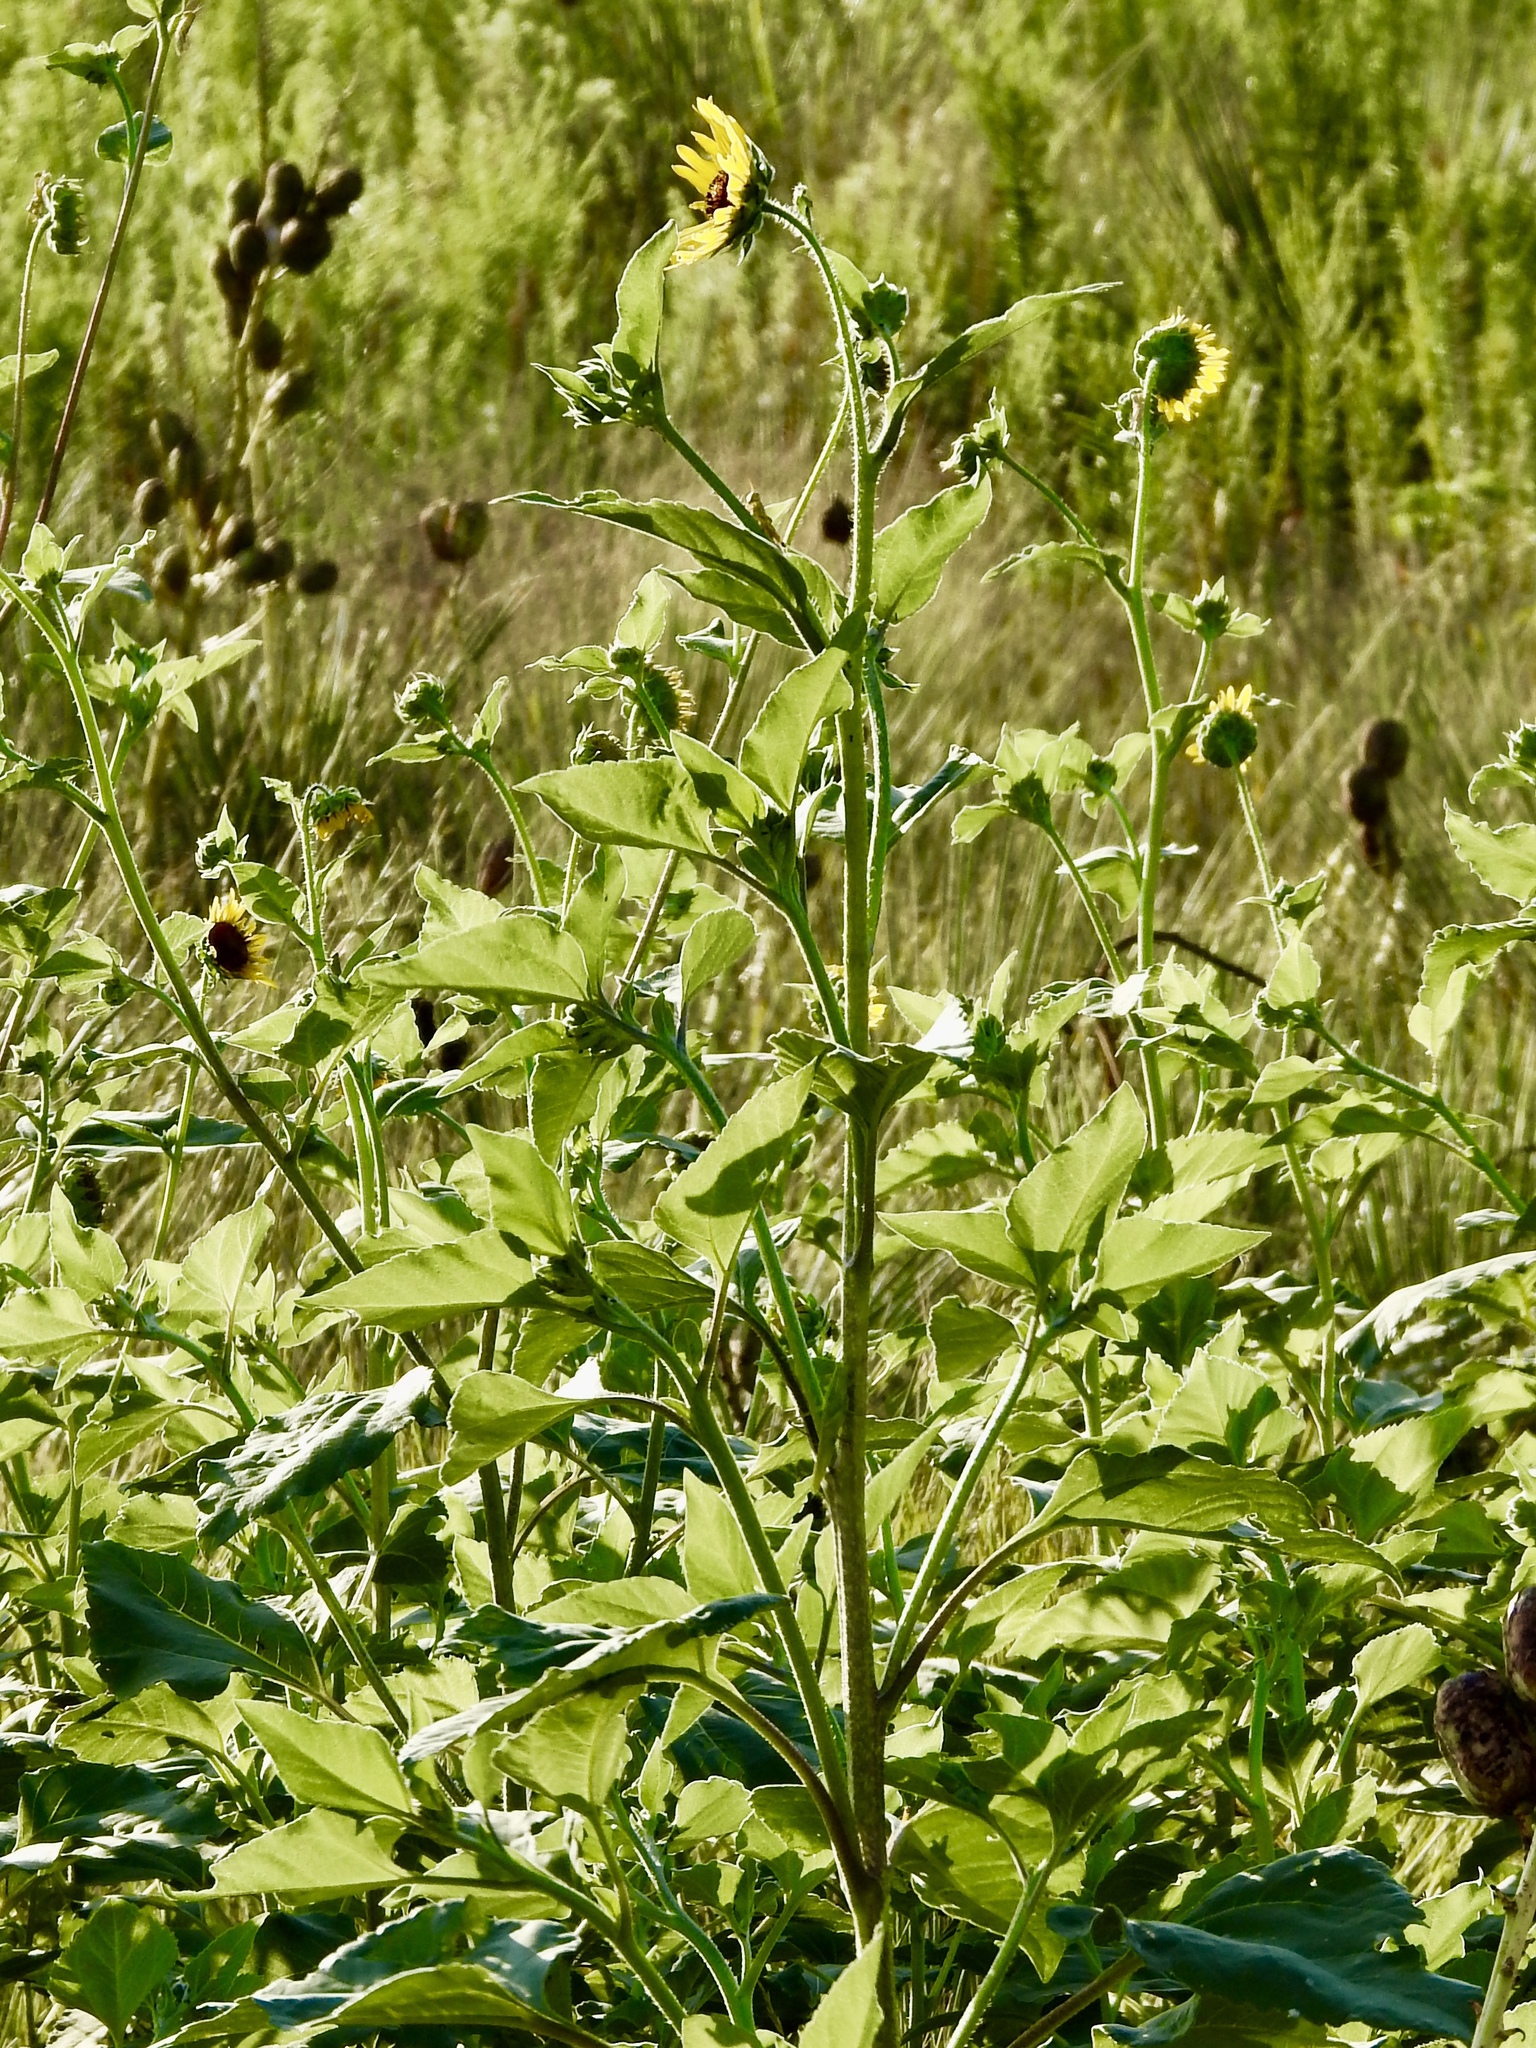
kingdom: Plantae
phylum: Tracheophyta
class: Magnoliopsida
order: Asterales
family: Asteraceae
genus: Helianthus
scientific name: Helianthus annuus
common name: Sunflower
